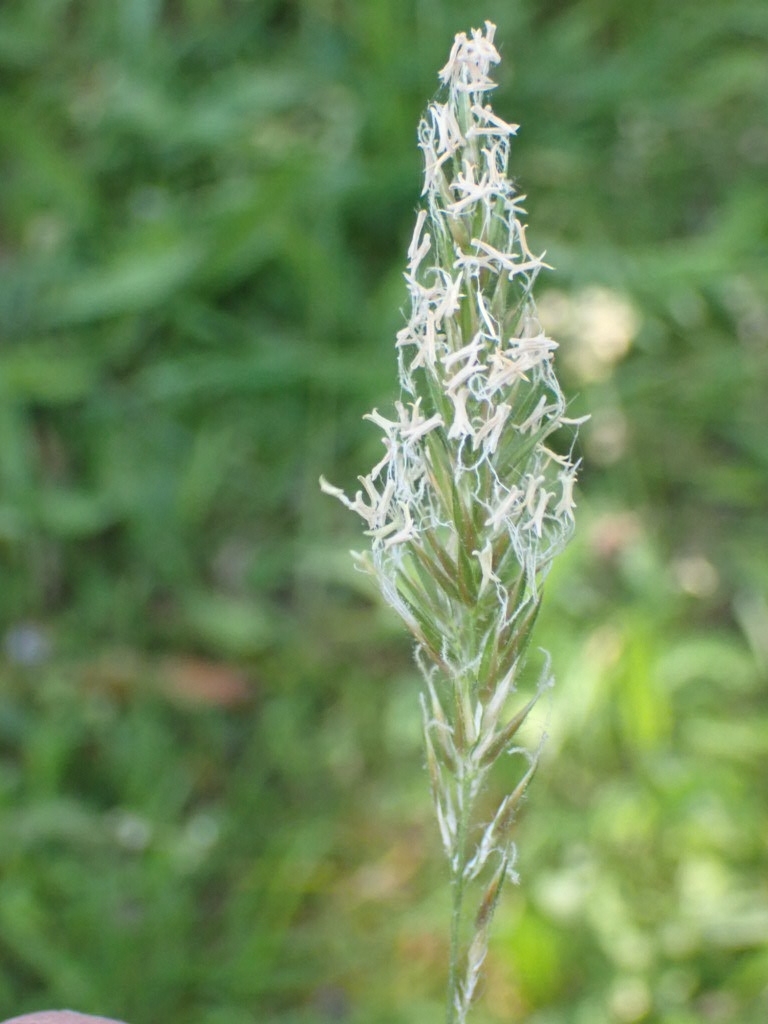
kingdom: Plantae
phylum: Tracheophyta
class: Liliopsida
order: Poales
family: Poaceae
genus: Anthoxanthum
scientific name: Anthoxanthum odoratum
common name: Sweet vernalgrass
